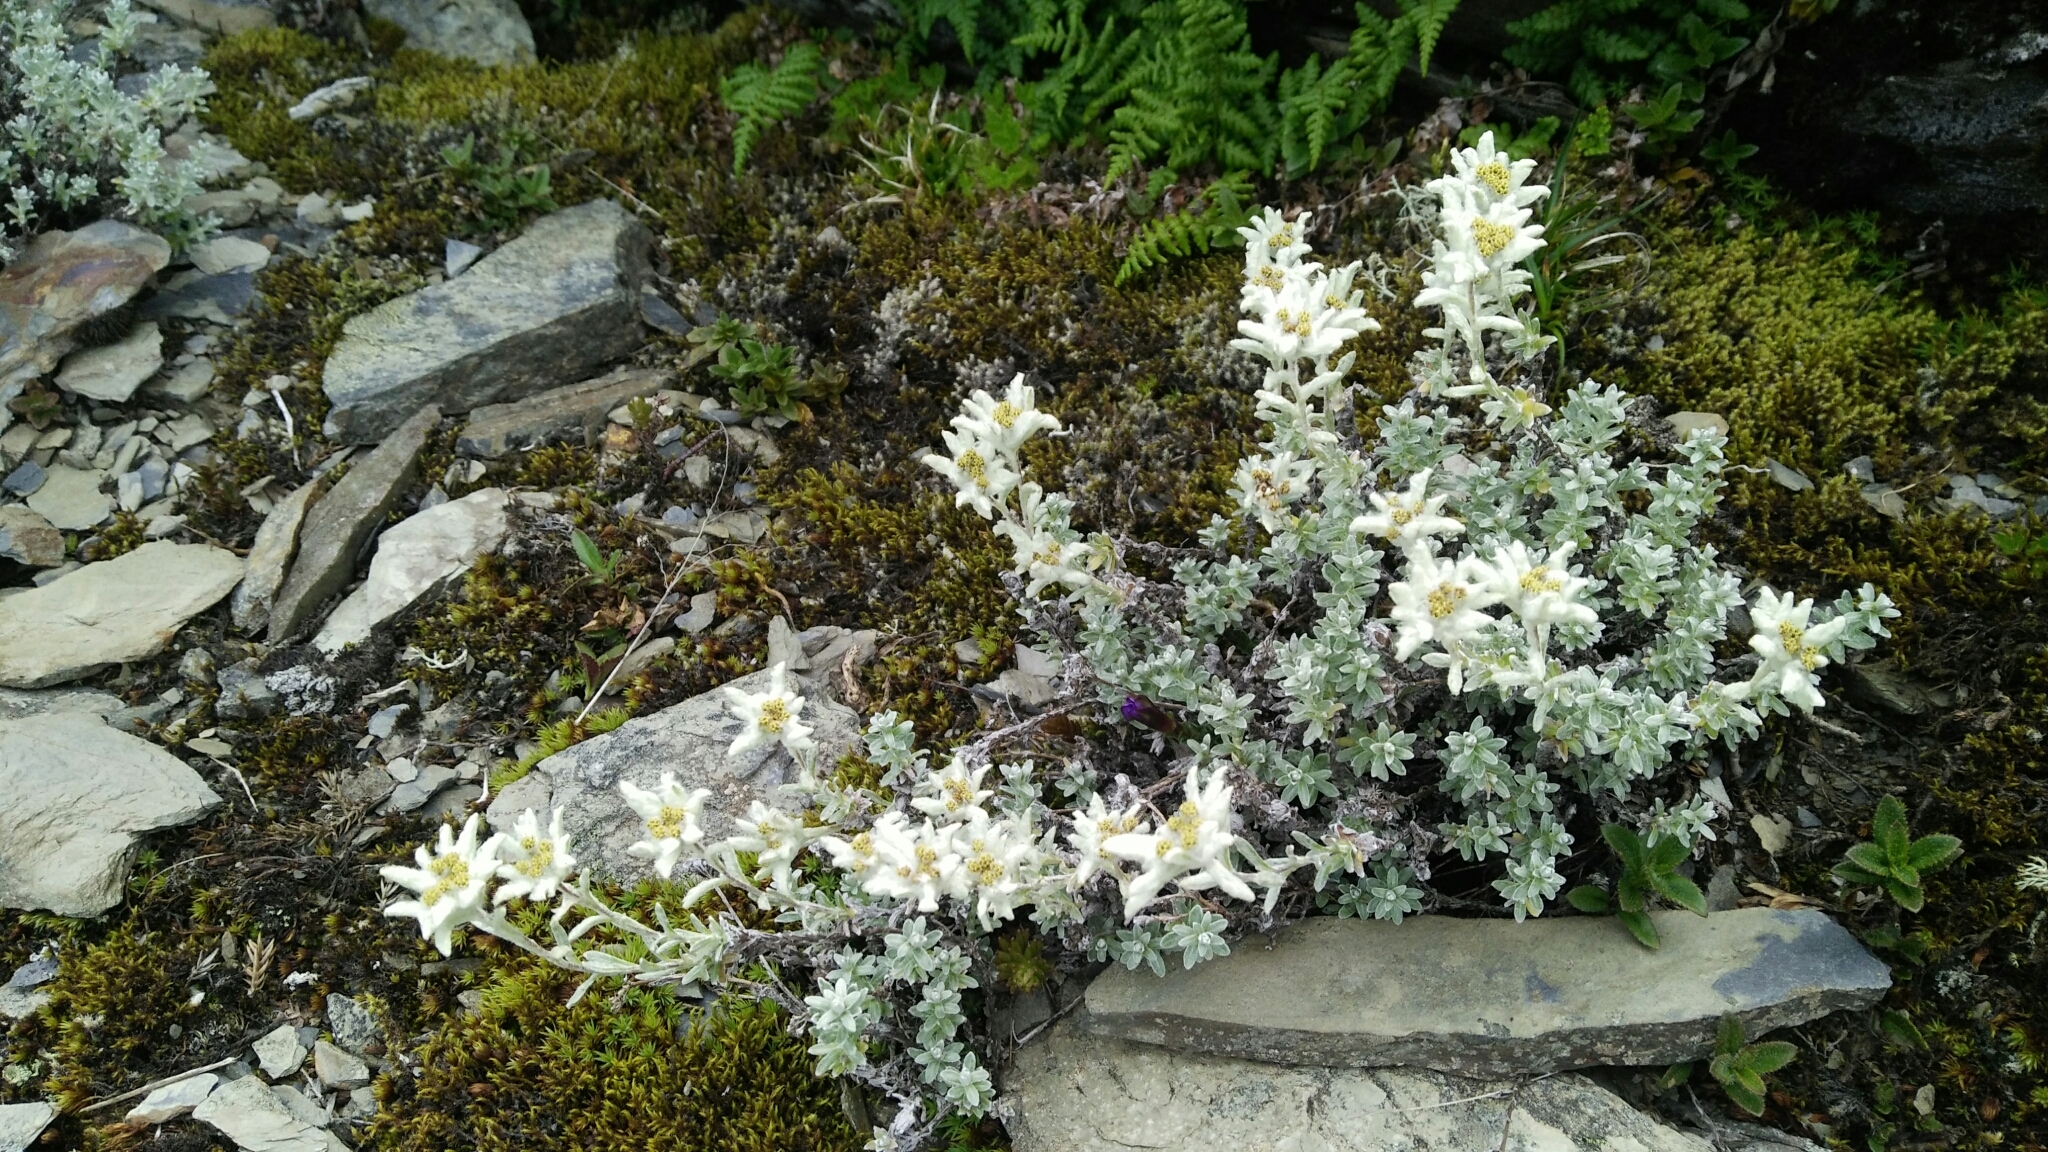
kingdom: Plantae
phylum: Tracheophyta
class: Magnoliopsida
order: Asterales
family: Asteraceae
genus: Leontopodium
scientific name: Leontopodium microphyllum
